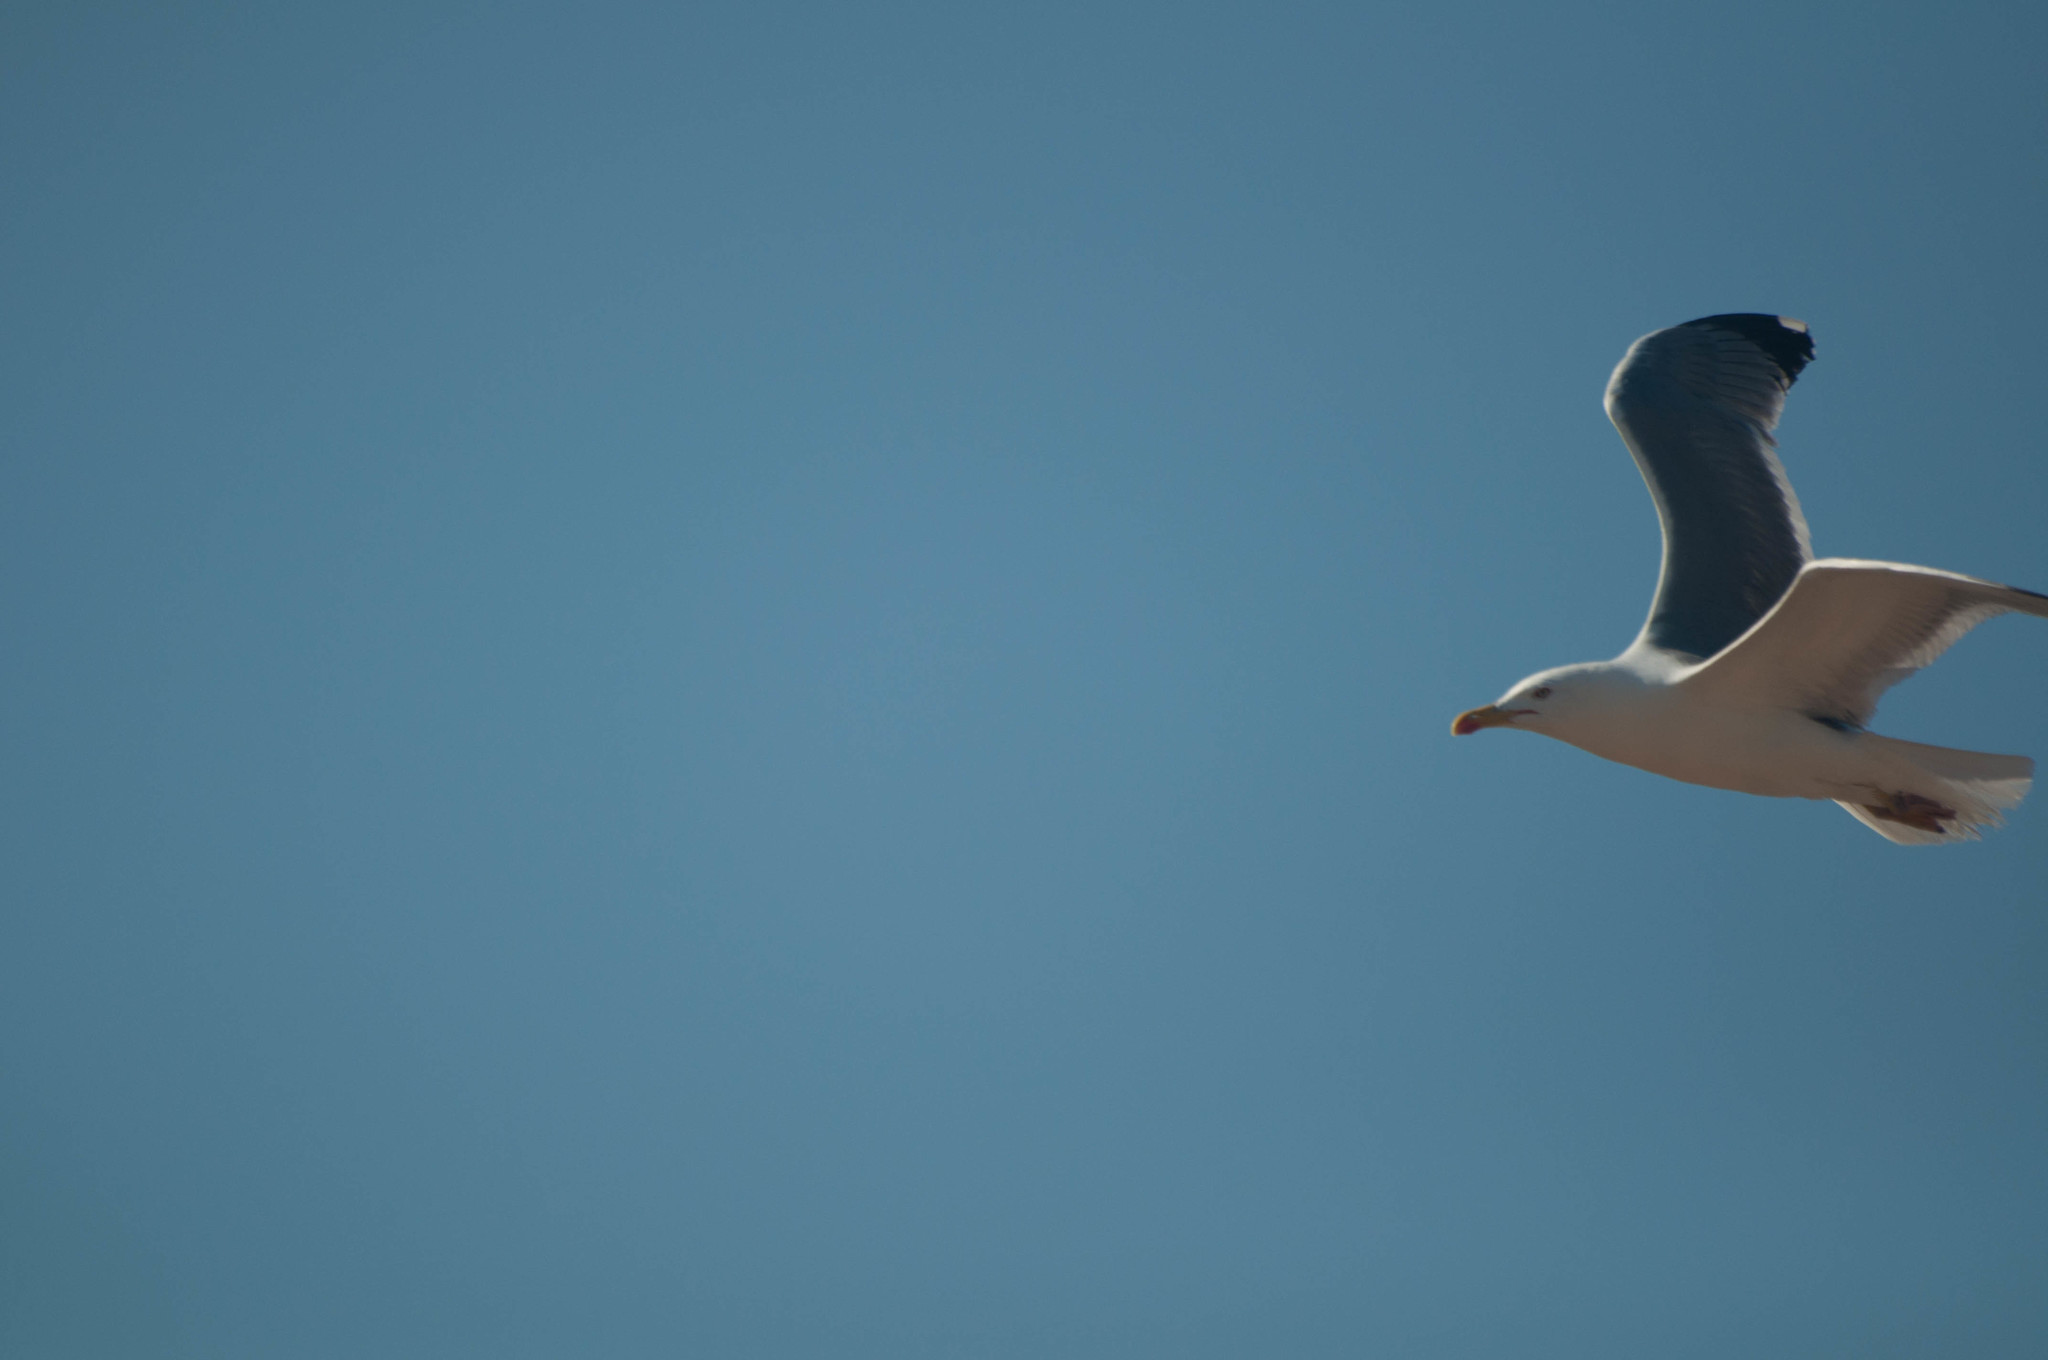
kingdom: Animalia
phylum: Chordata
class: Aves
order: Charadriiformes
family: Laridae
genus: Larus
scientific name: Larus michahellis
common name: Yellow-legged gull
